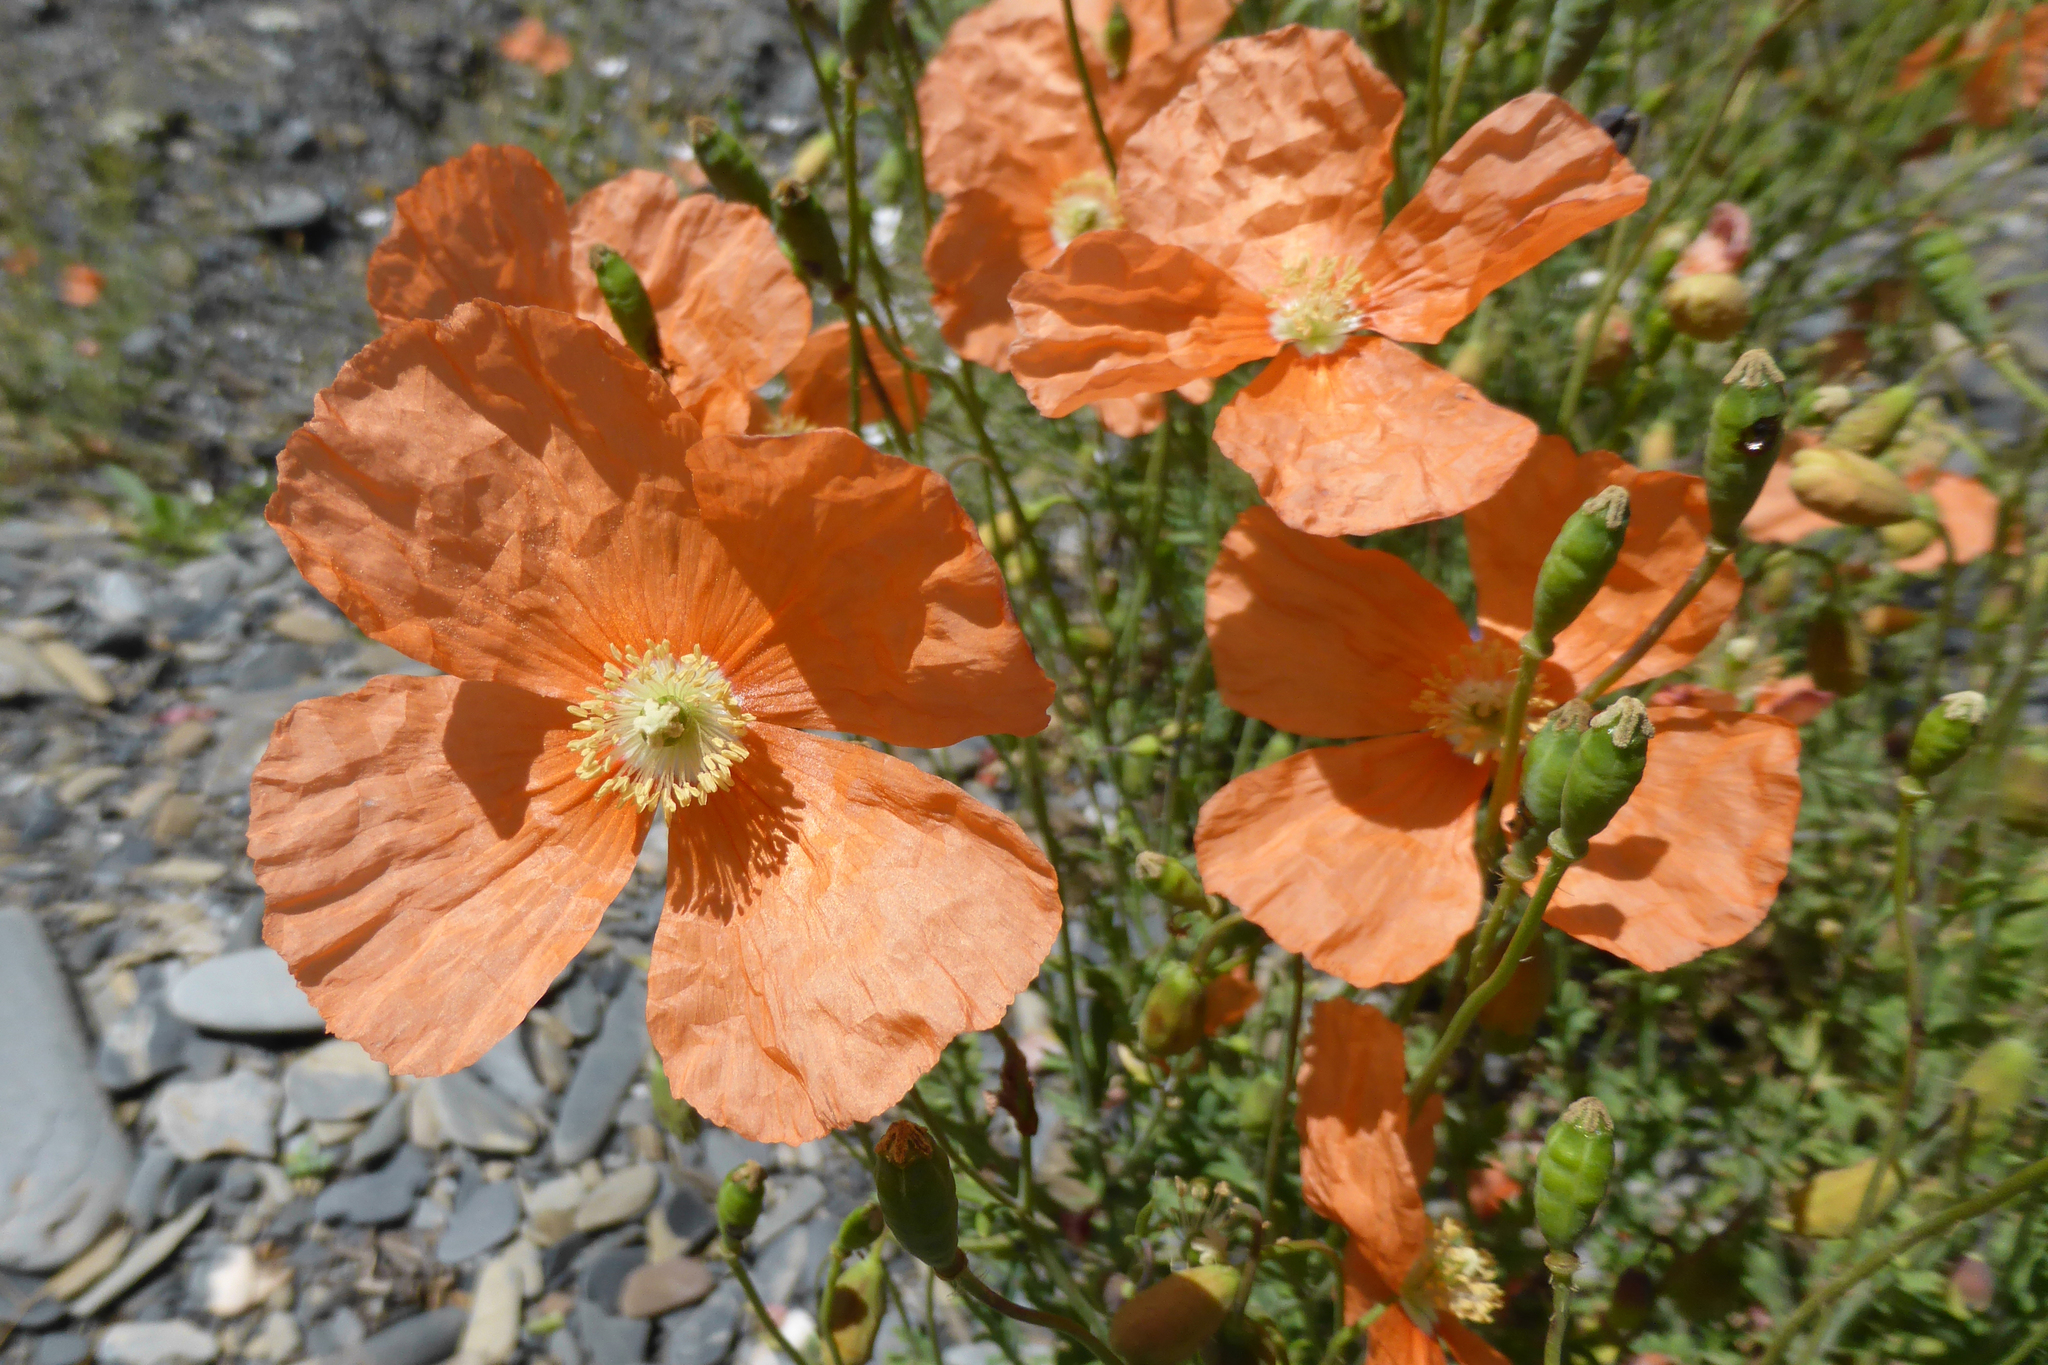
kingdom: Plantae
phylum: Tracheophyta
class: Magnoliopsida
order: Ranunculales
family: Papaveraceae
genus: Papaver
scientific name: Papaver armeniacum
